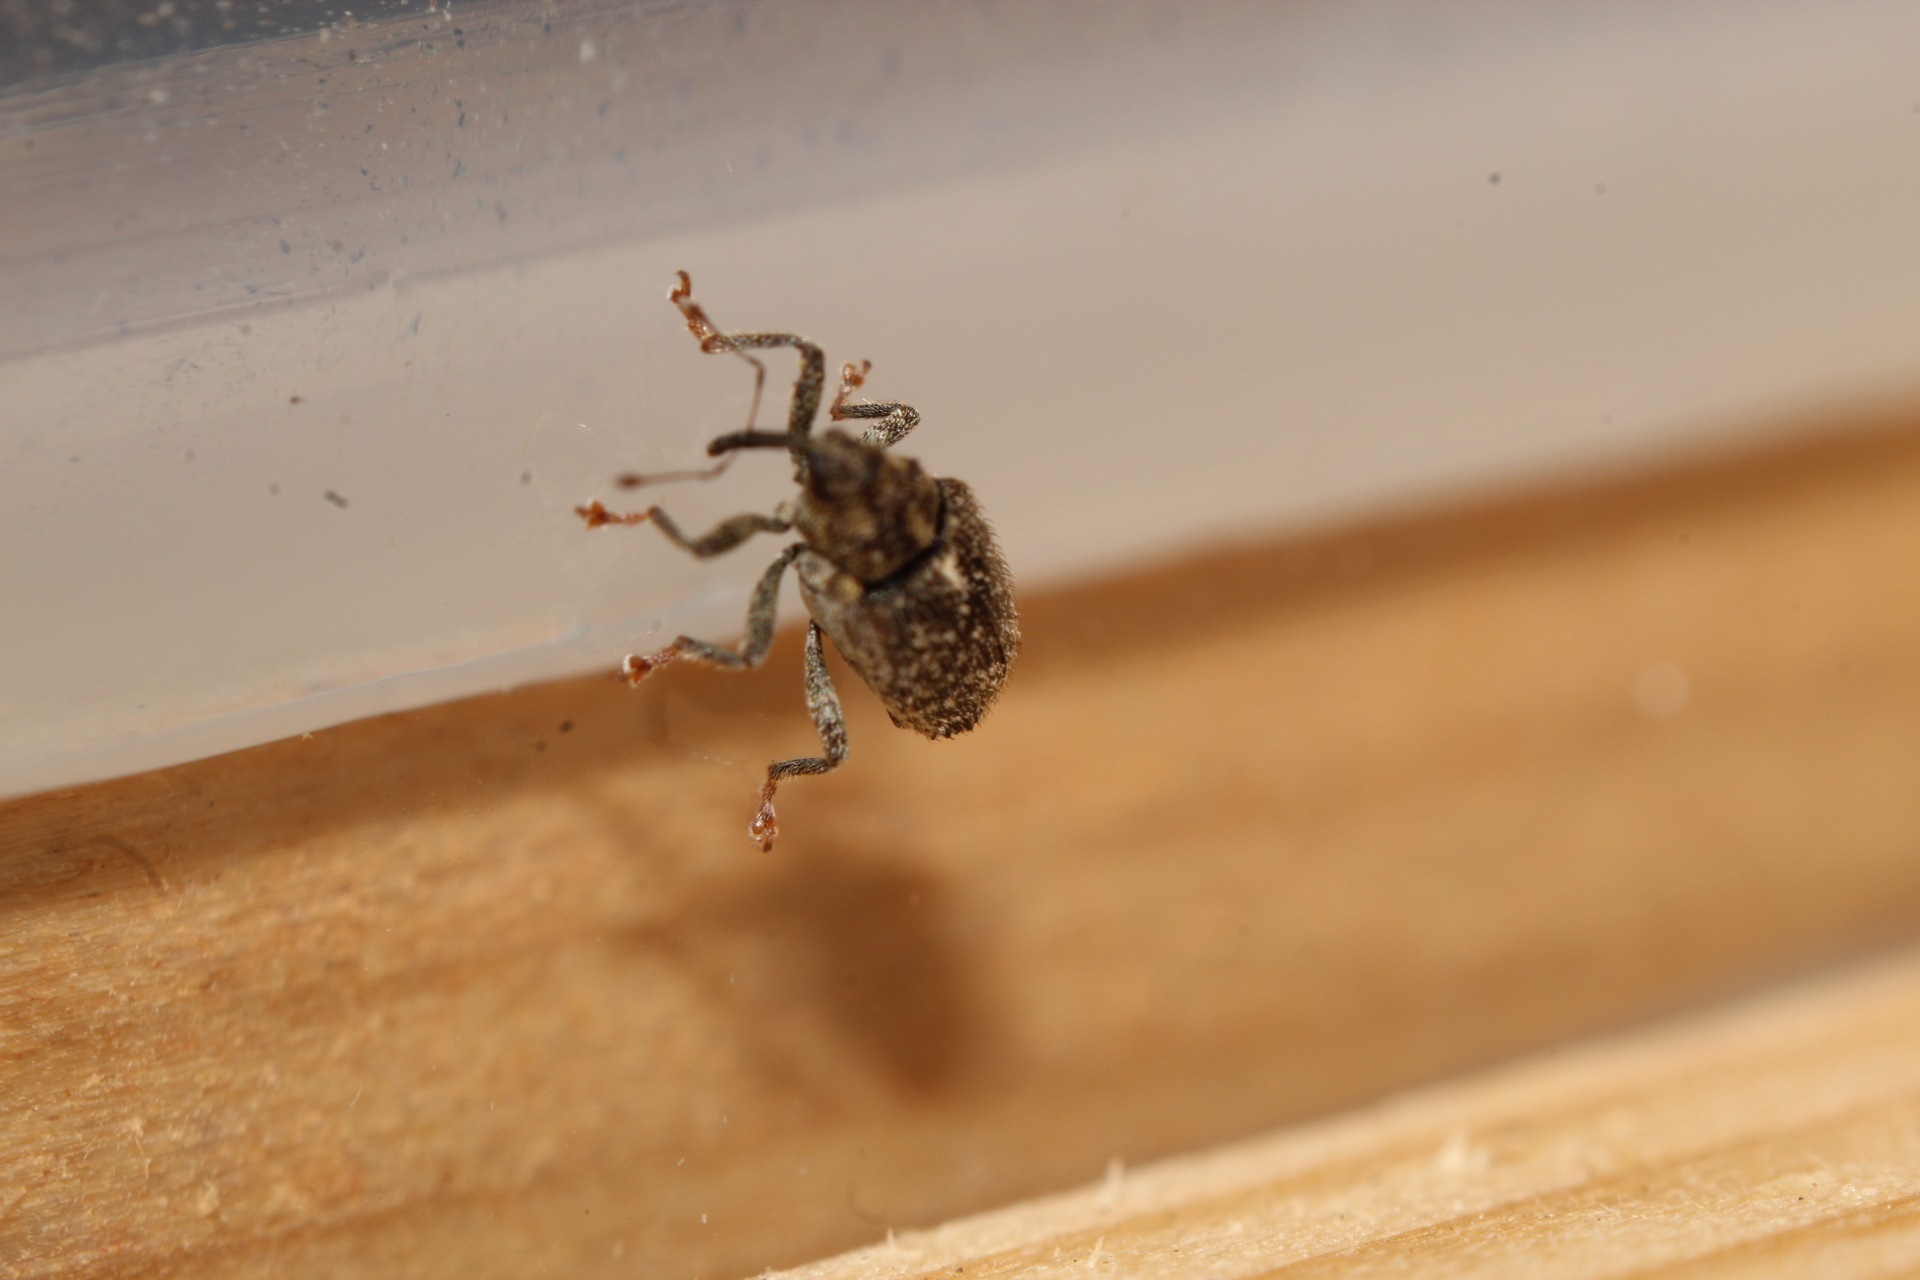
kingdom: Animalia
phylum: Arthropoda
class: Insecta
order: Coleoptera
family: Curculionidae
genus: Ceutorhynchus
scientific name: Ceutorhynchus pallidactylus
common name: Cabbage stem weavil
